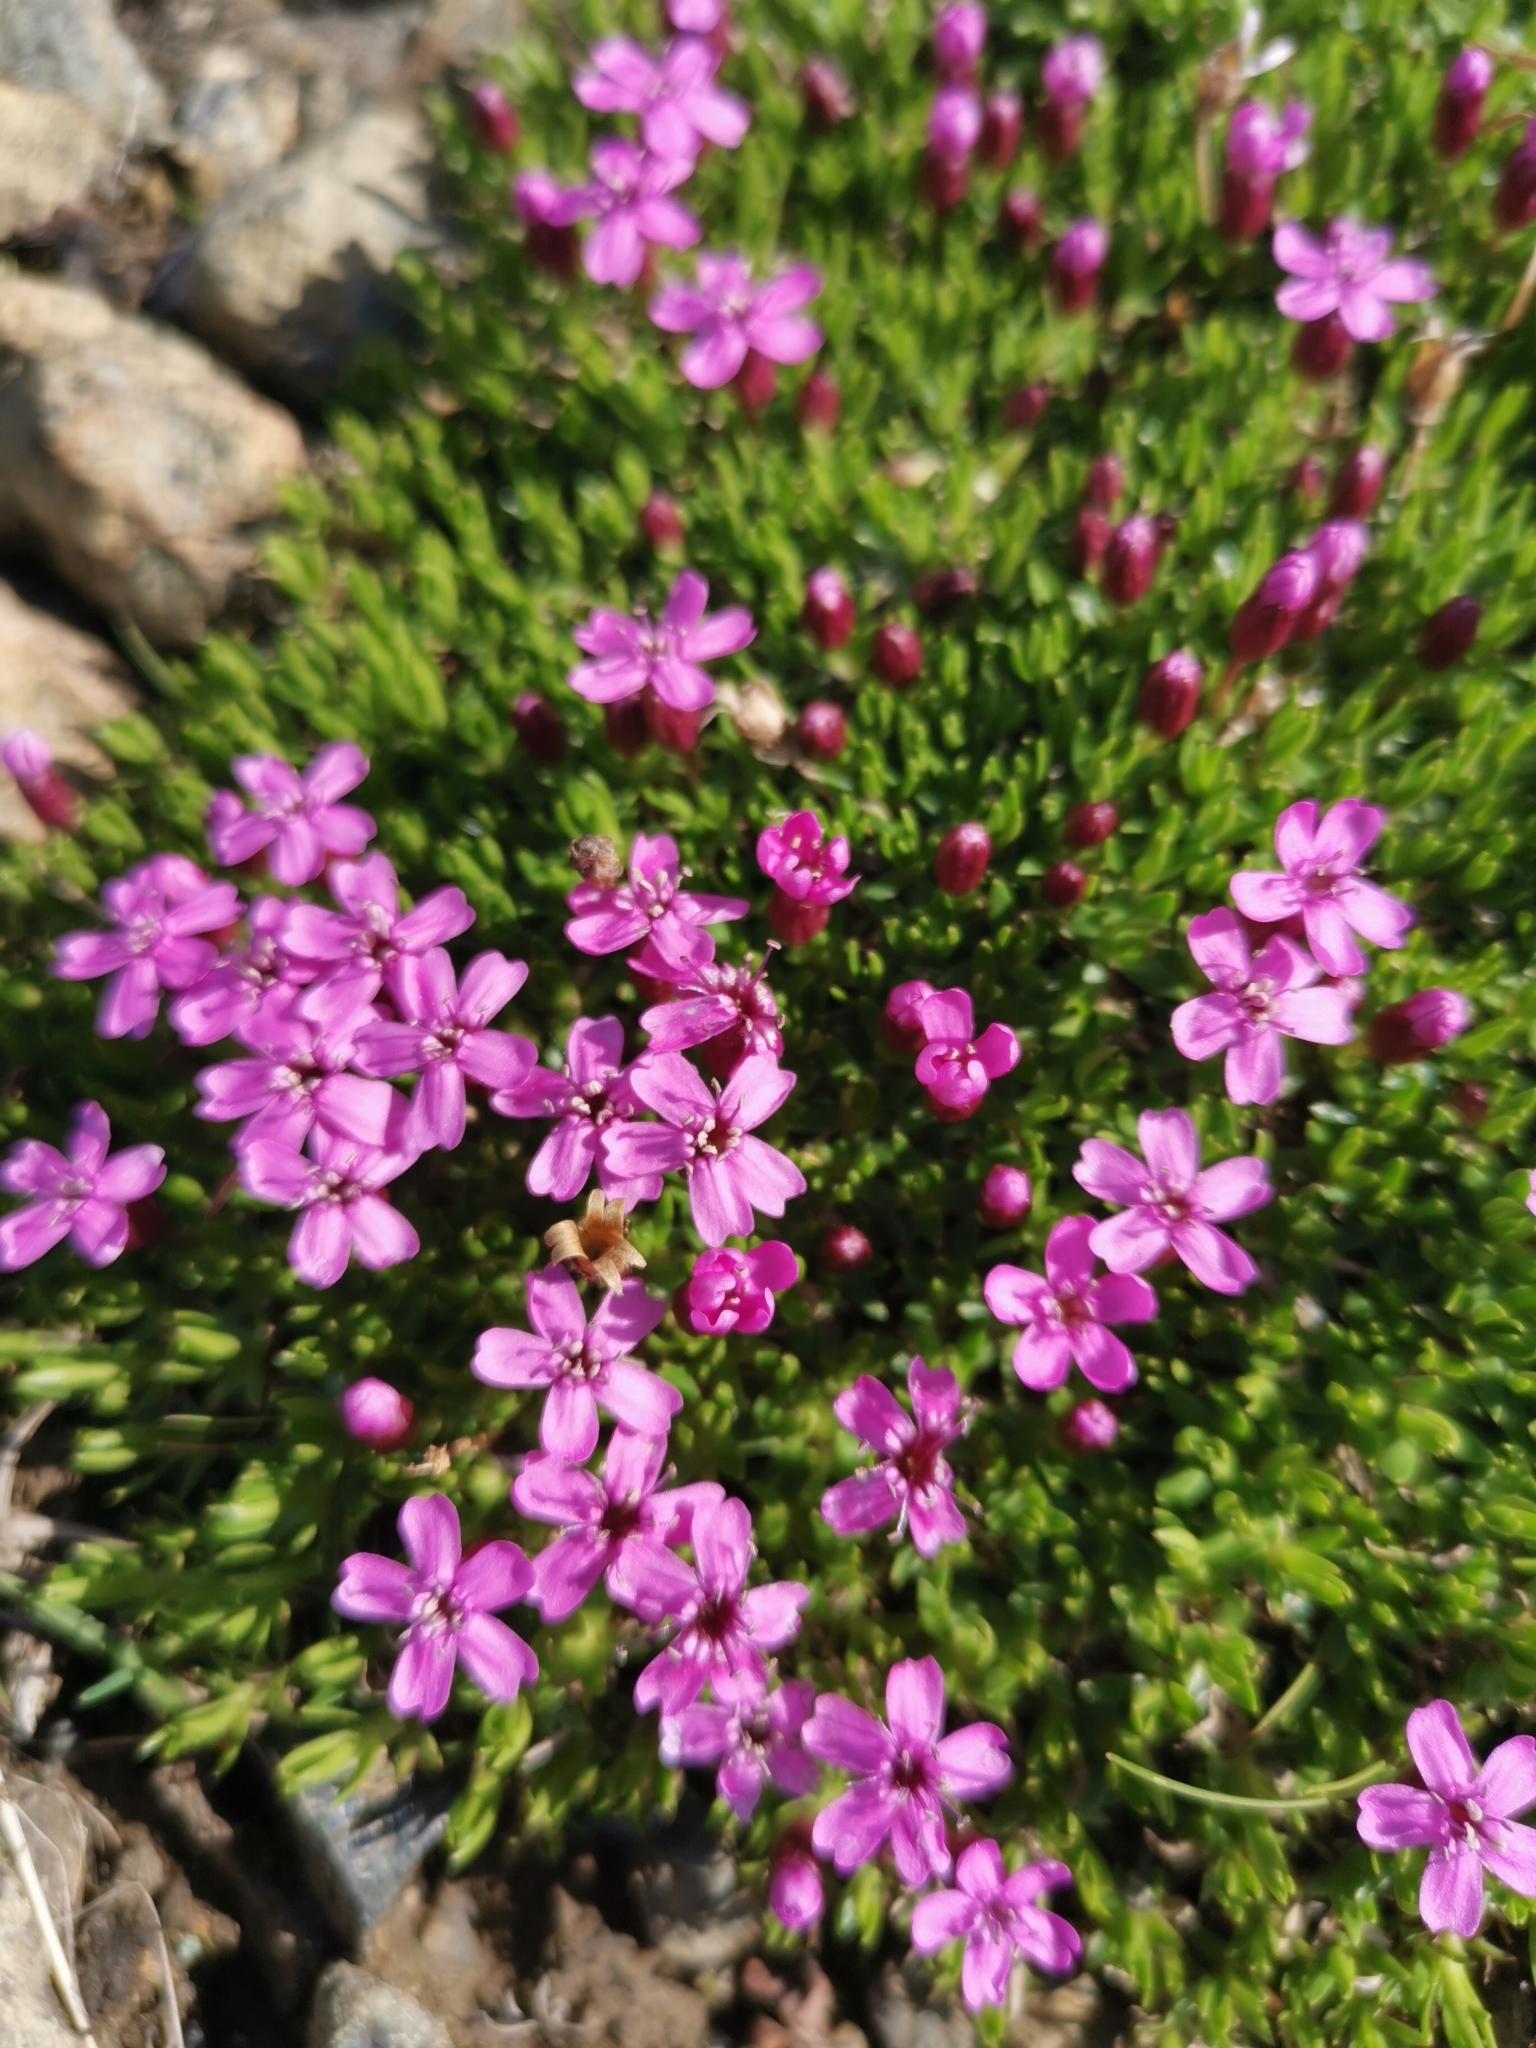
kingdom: Plantae
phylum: Tracheophyta
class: Magnoliopsida
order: Caryophyllales
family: Caryophyllaceae
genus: Silene
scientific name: Silene acaulis
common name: Moss campion
